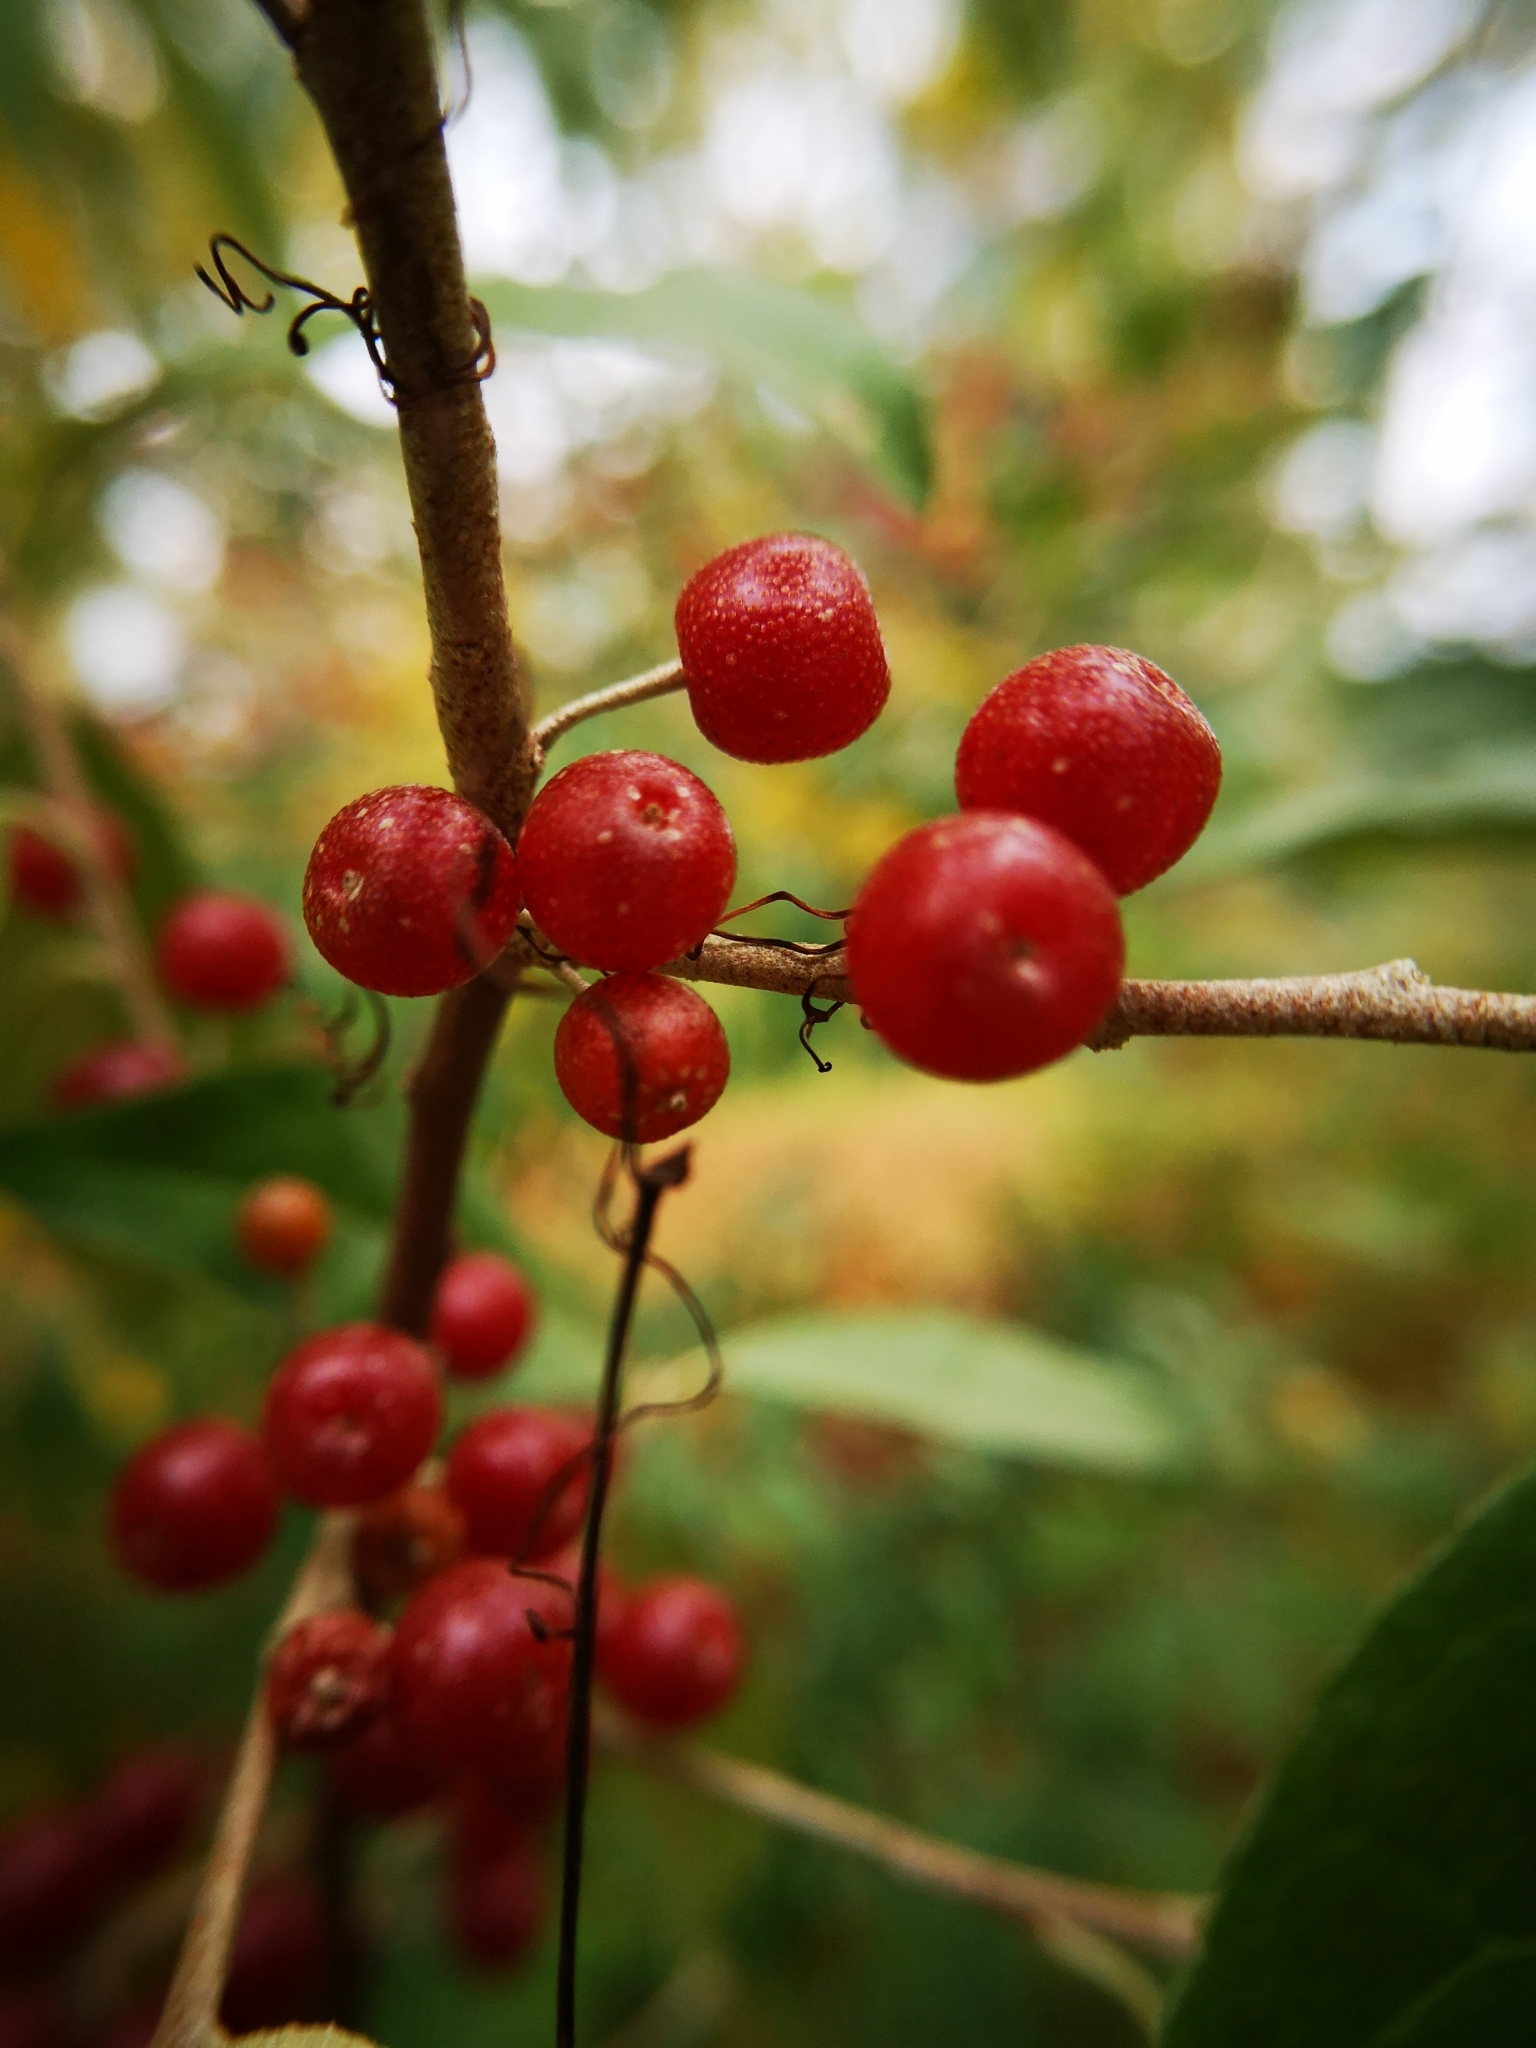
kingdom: Plantae
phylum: Tracheophyta
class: Magnoliopsida
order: Rosales
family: Elaeagnaceae
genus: Elaeagnus
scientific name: Elaeagnus umbellata
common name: Autumn olive
